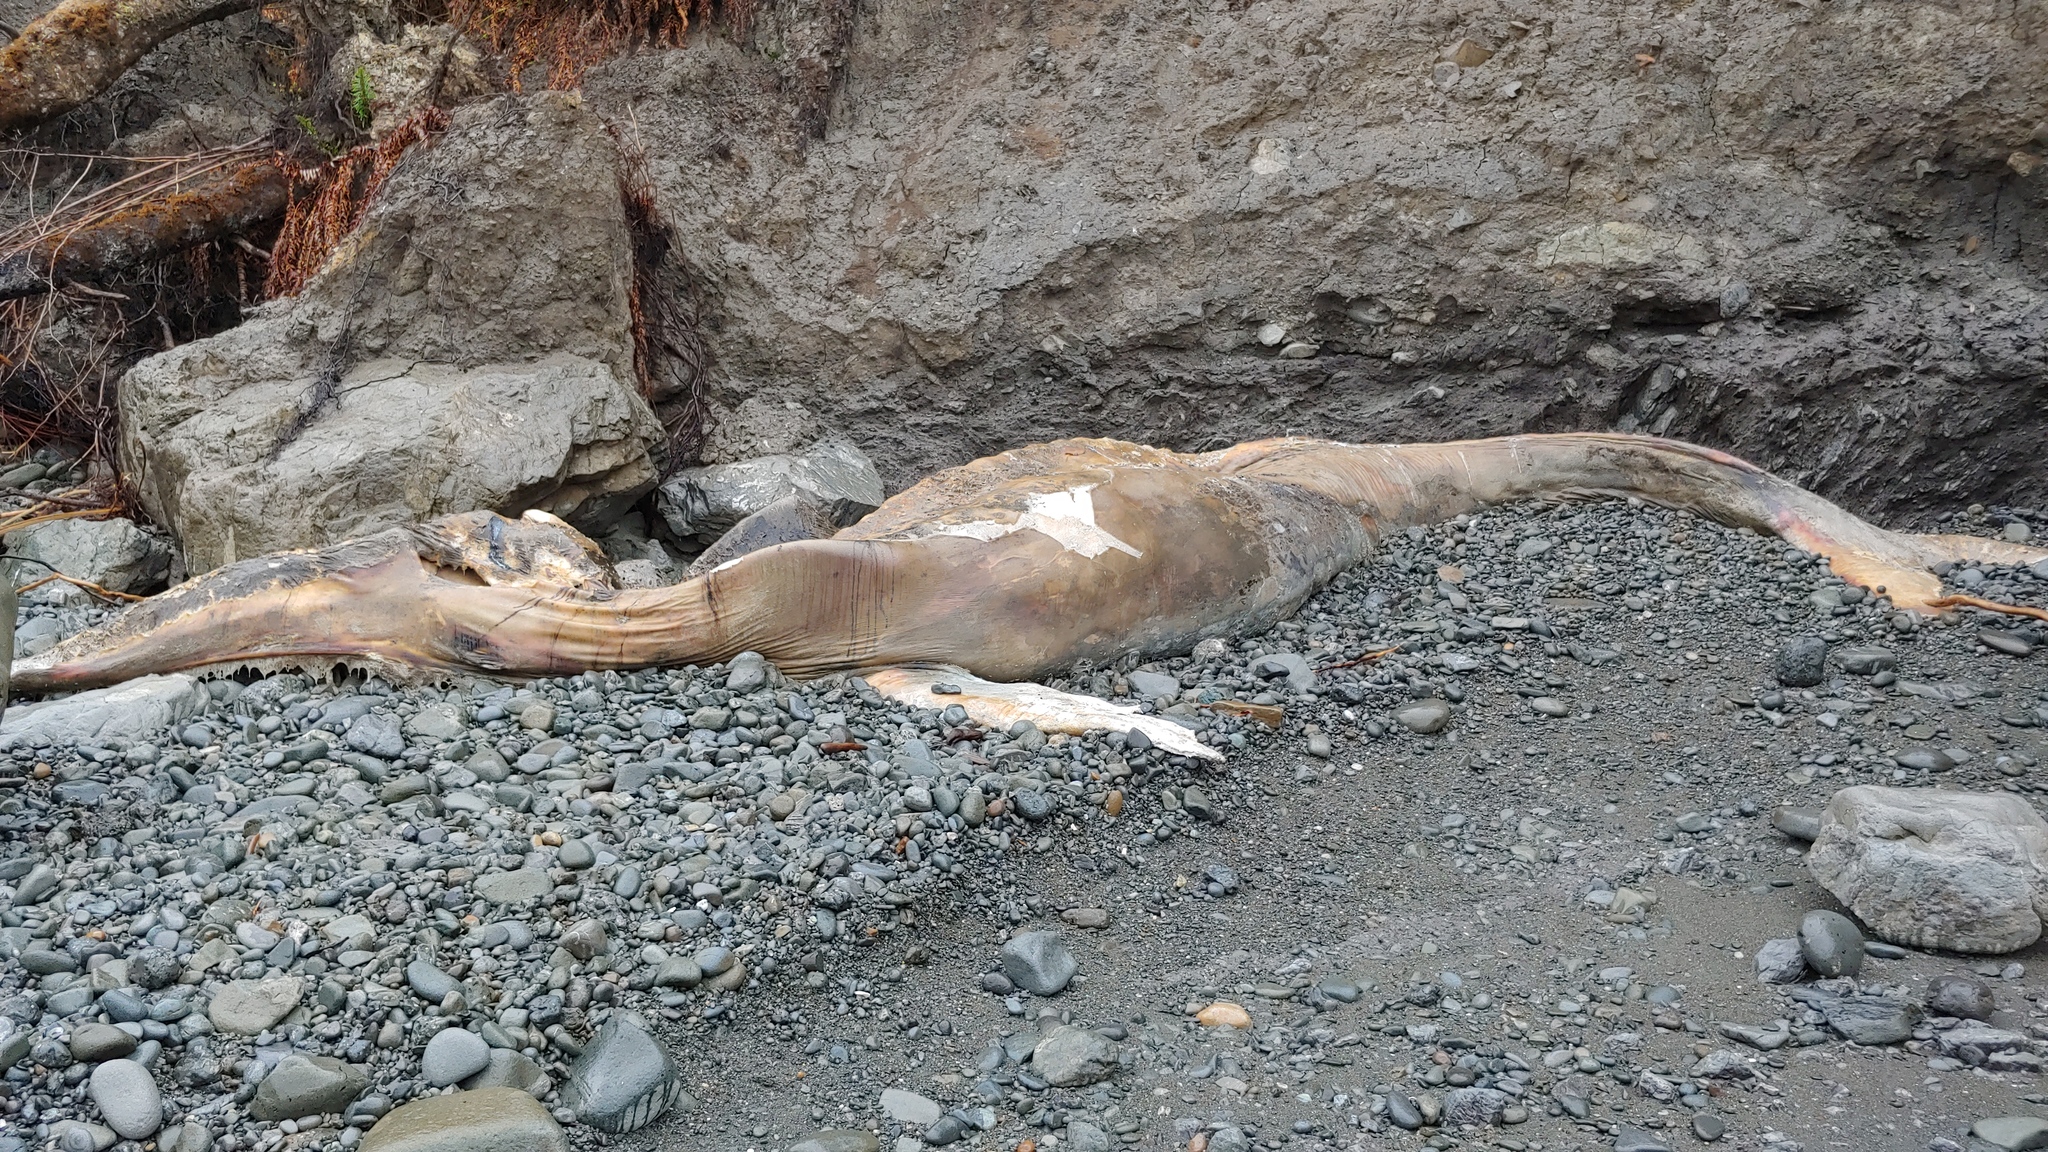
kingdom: Animalia
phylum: Chordata
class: Mammalia
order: Cetacea
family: Balaenopteridae
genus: Megaptera
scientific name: Megaptera novaeangliae
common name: Humpback whale
